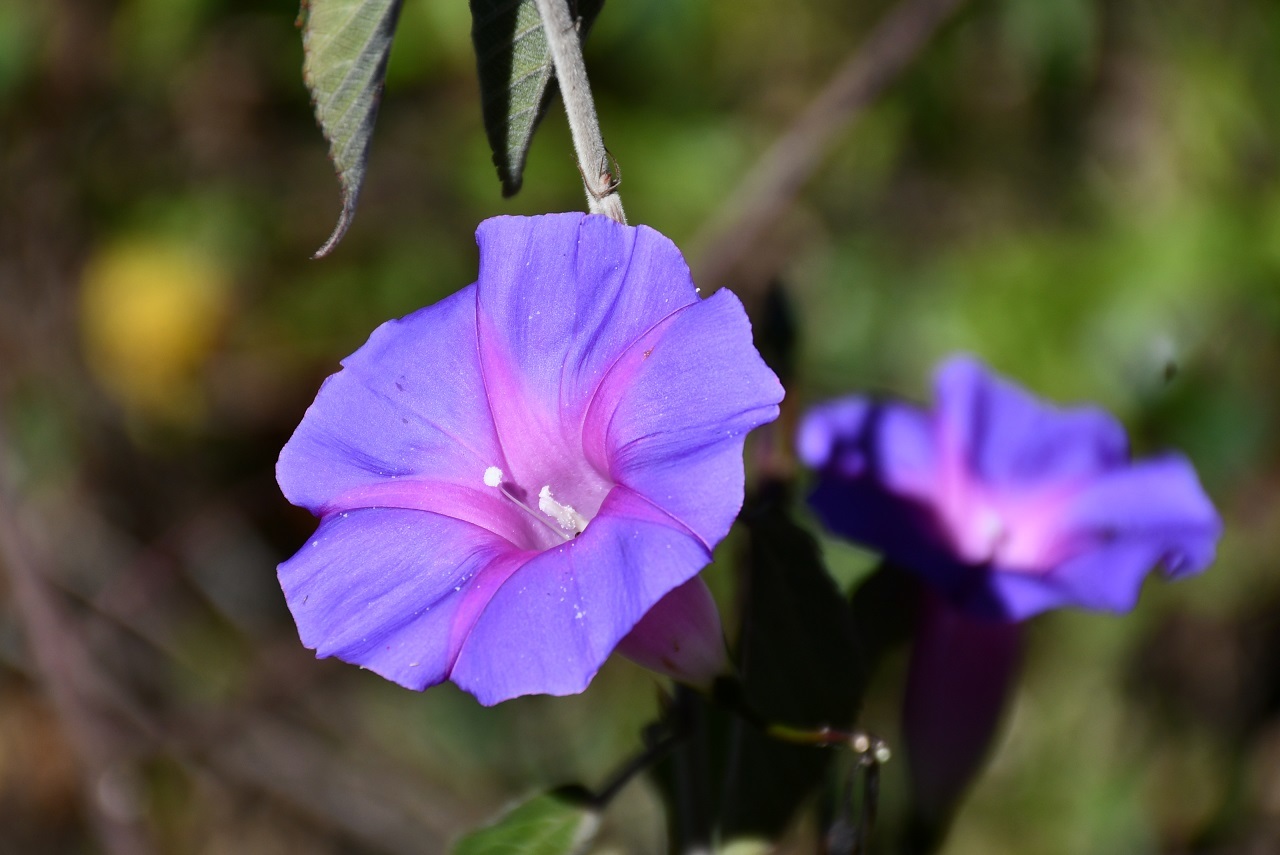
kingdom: Plantae
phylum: Tracheophyta
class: Magnoliopsida
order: Solanales
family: Convolvulaceae
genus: Ipomoea
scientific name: Ipomoea orizabensis
